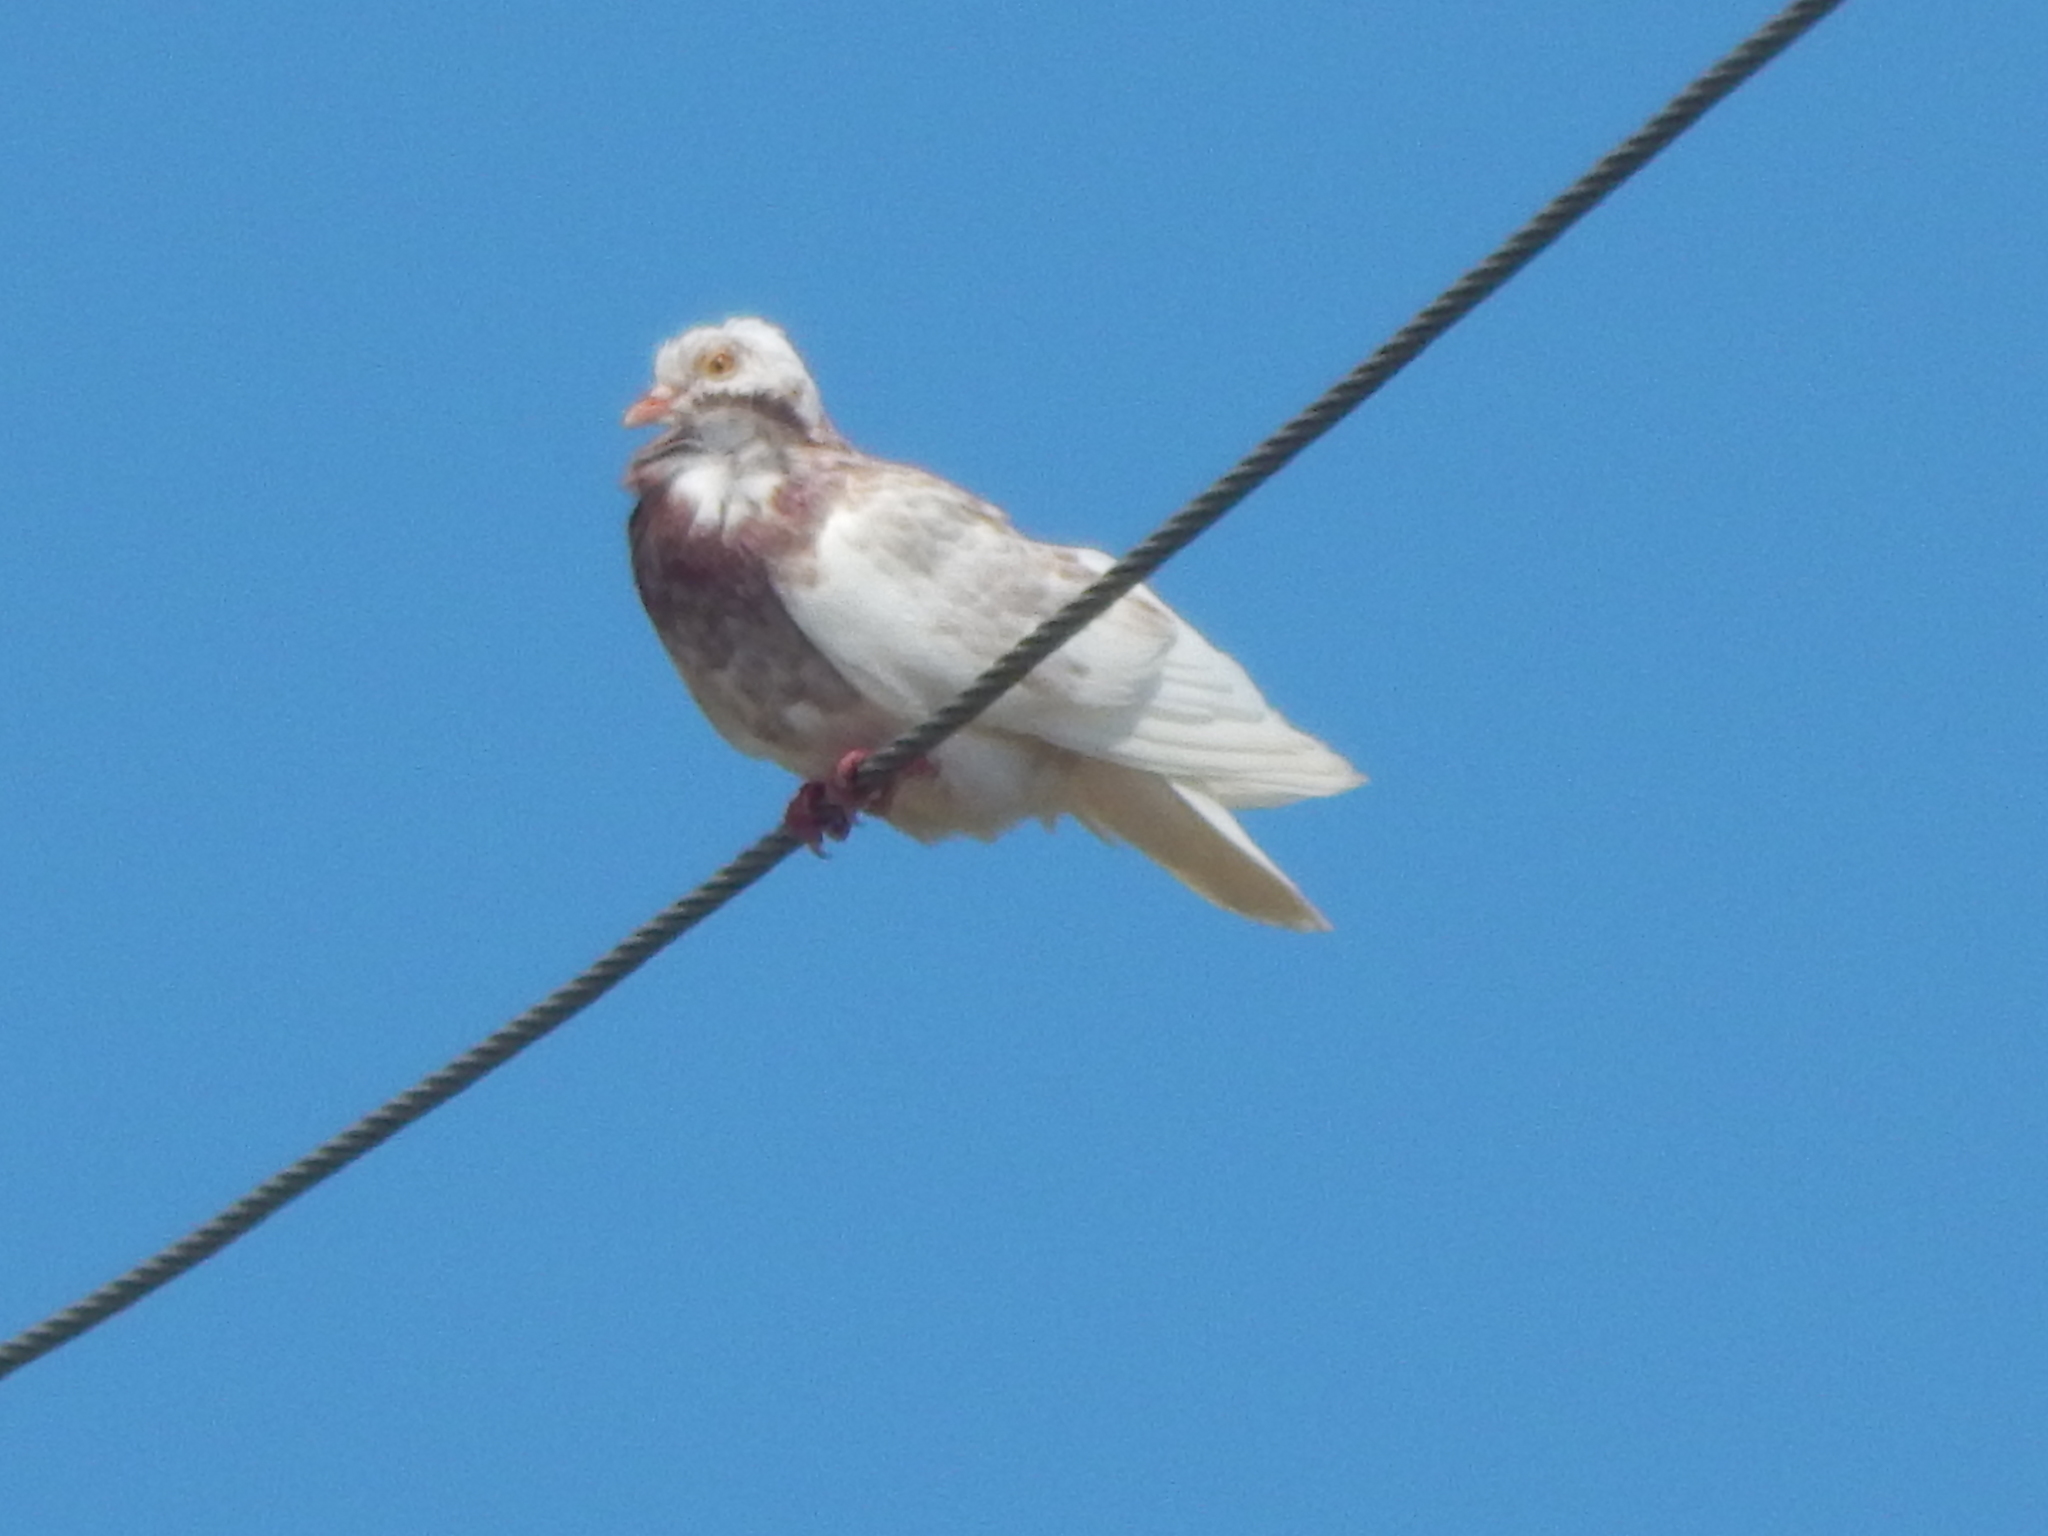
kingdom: Animalia
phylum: Chordata
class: Aves
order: Columbiformes
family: Columbidae
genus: Columba
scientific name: Columba livia
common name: Rock pigeon
